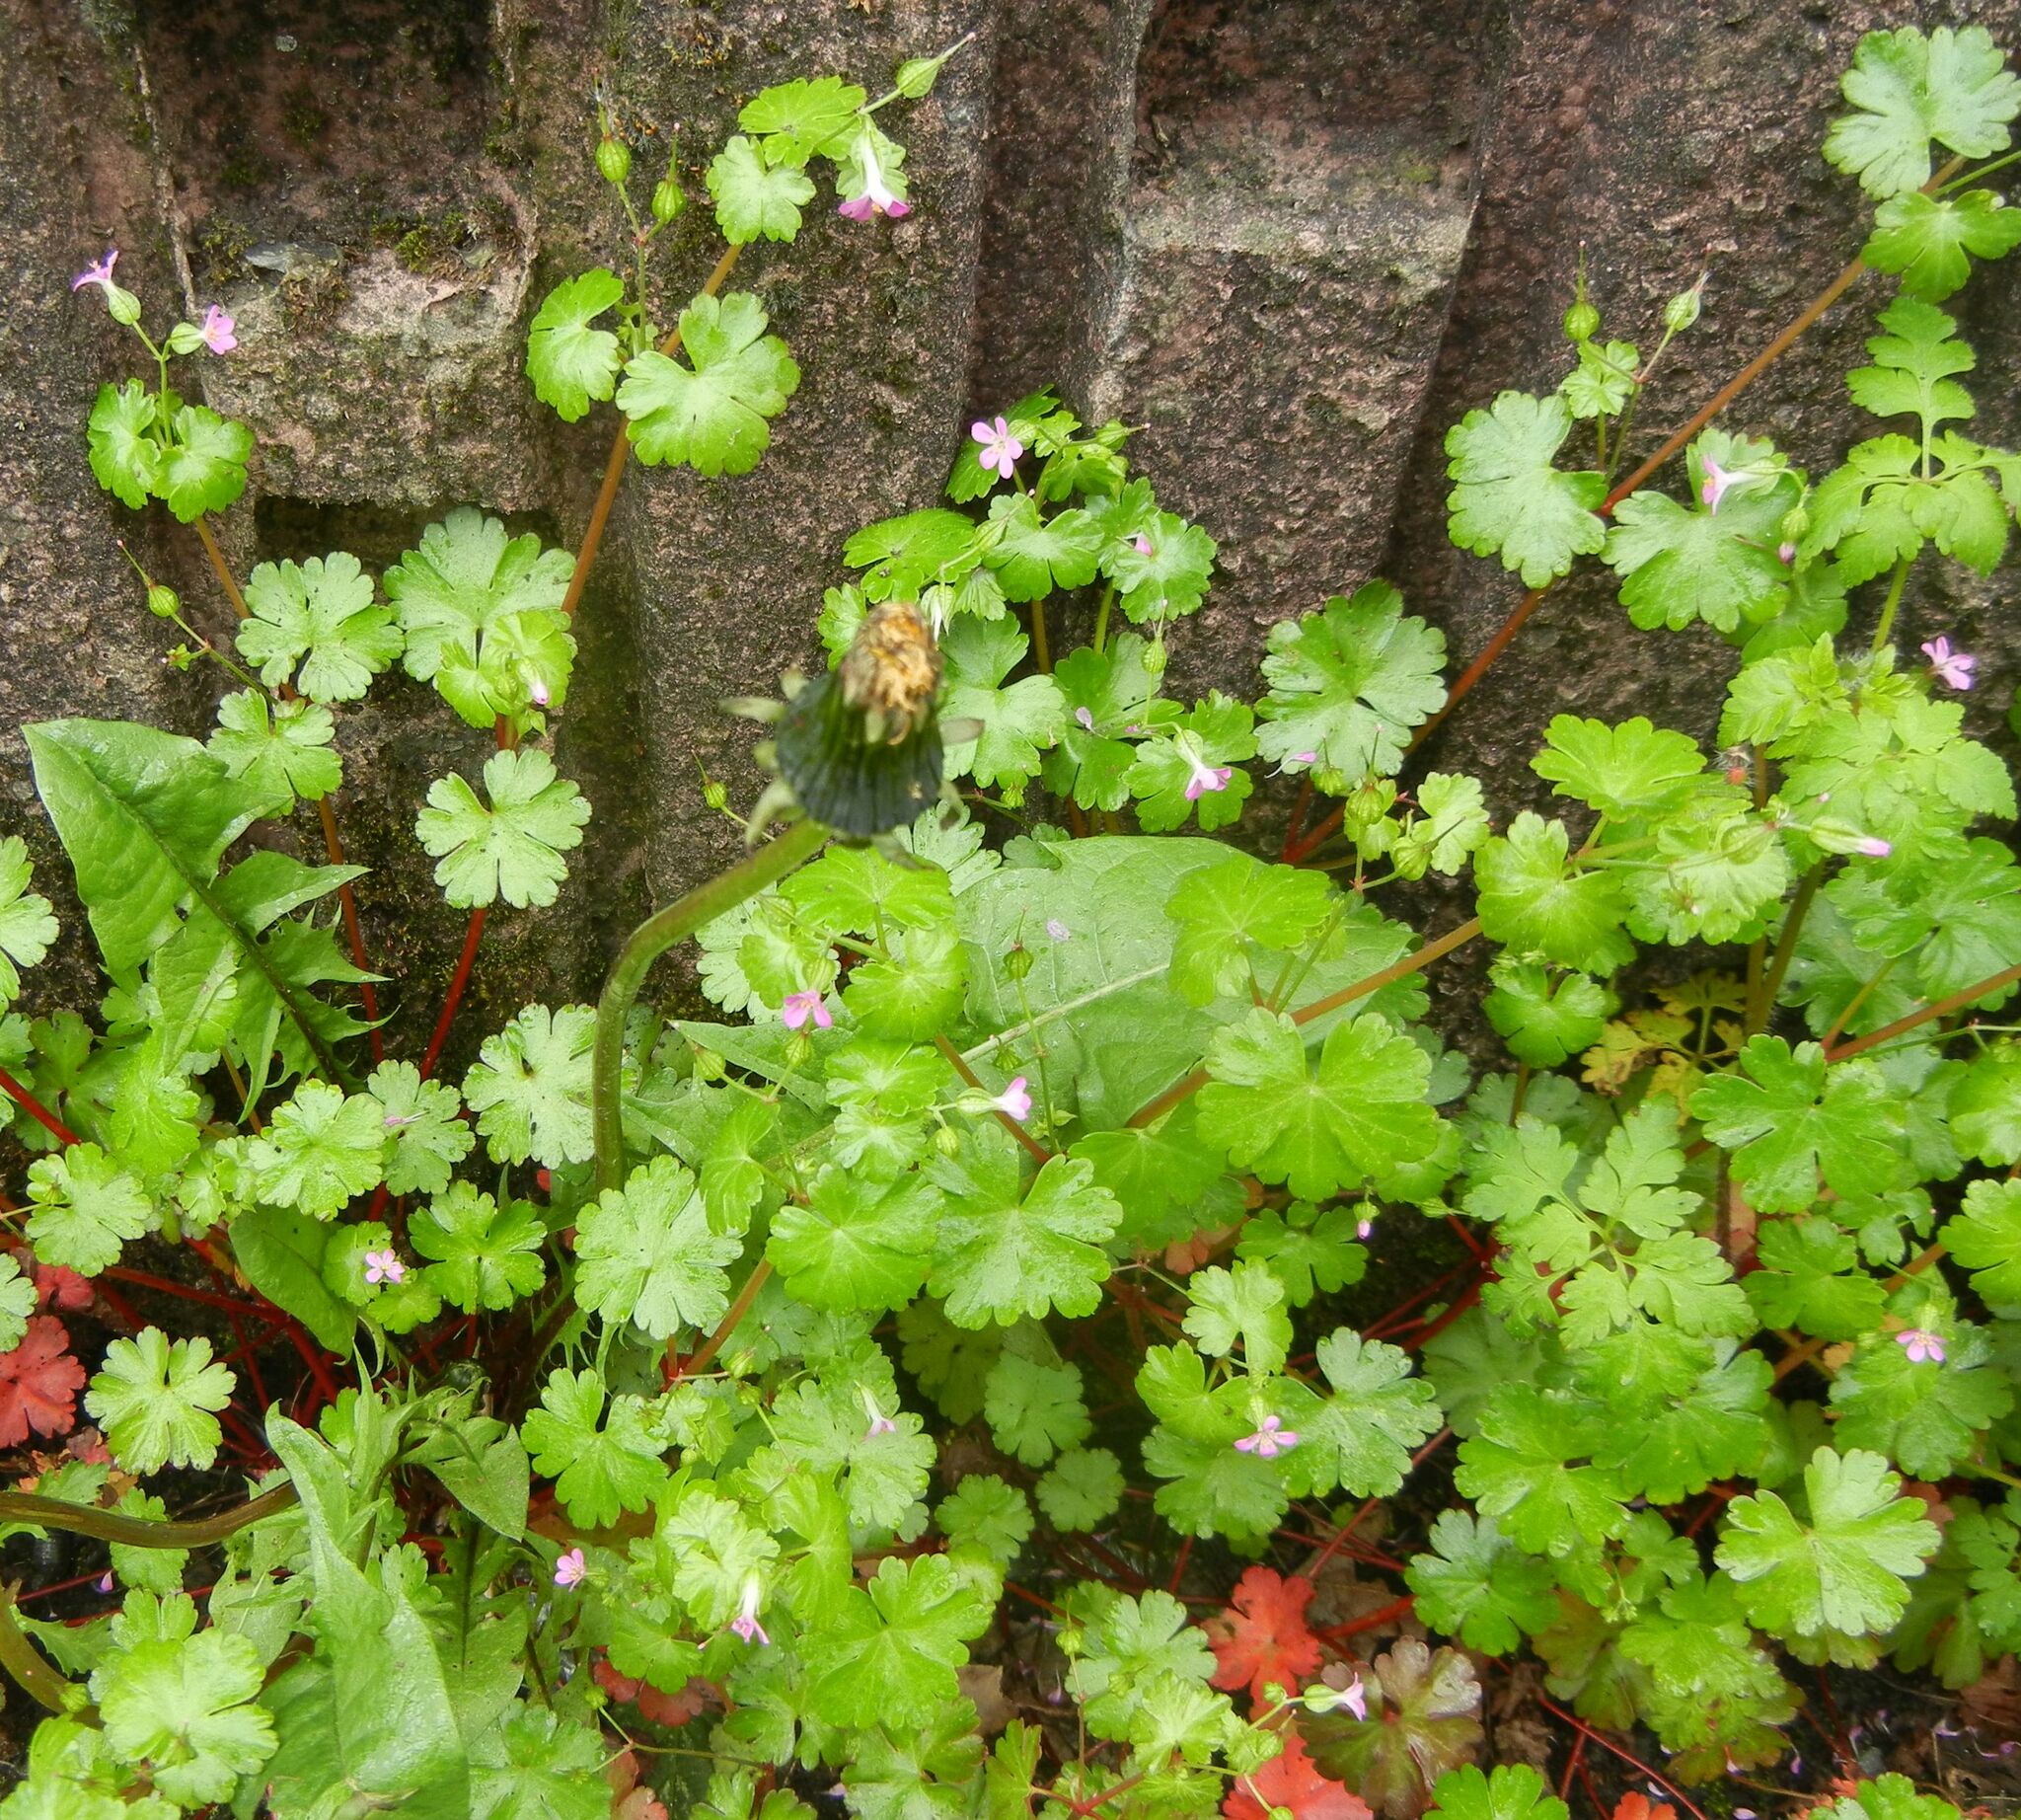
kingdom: Plantae
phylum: Tracheophyta
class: Magnoliopsida
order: Geraniales
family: Geraniaceae
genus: Geranium
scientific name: Geranium lucidum
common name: Shining crane's-bill
